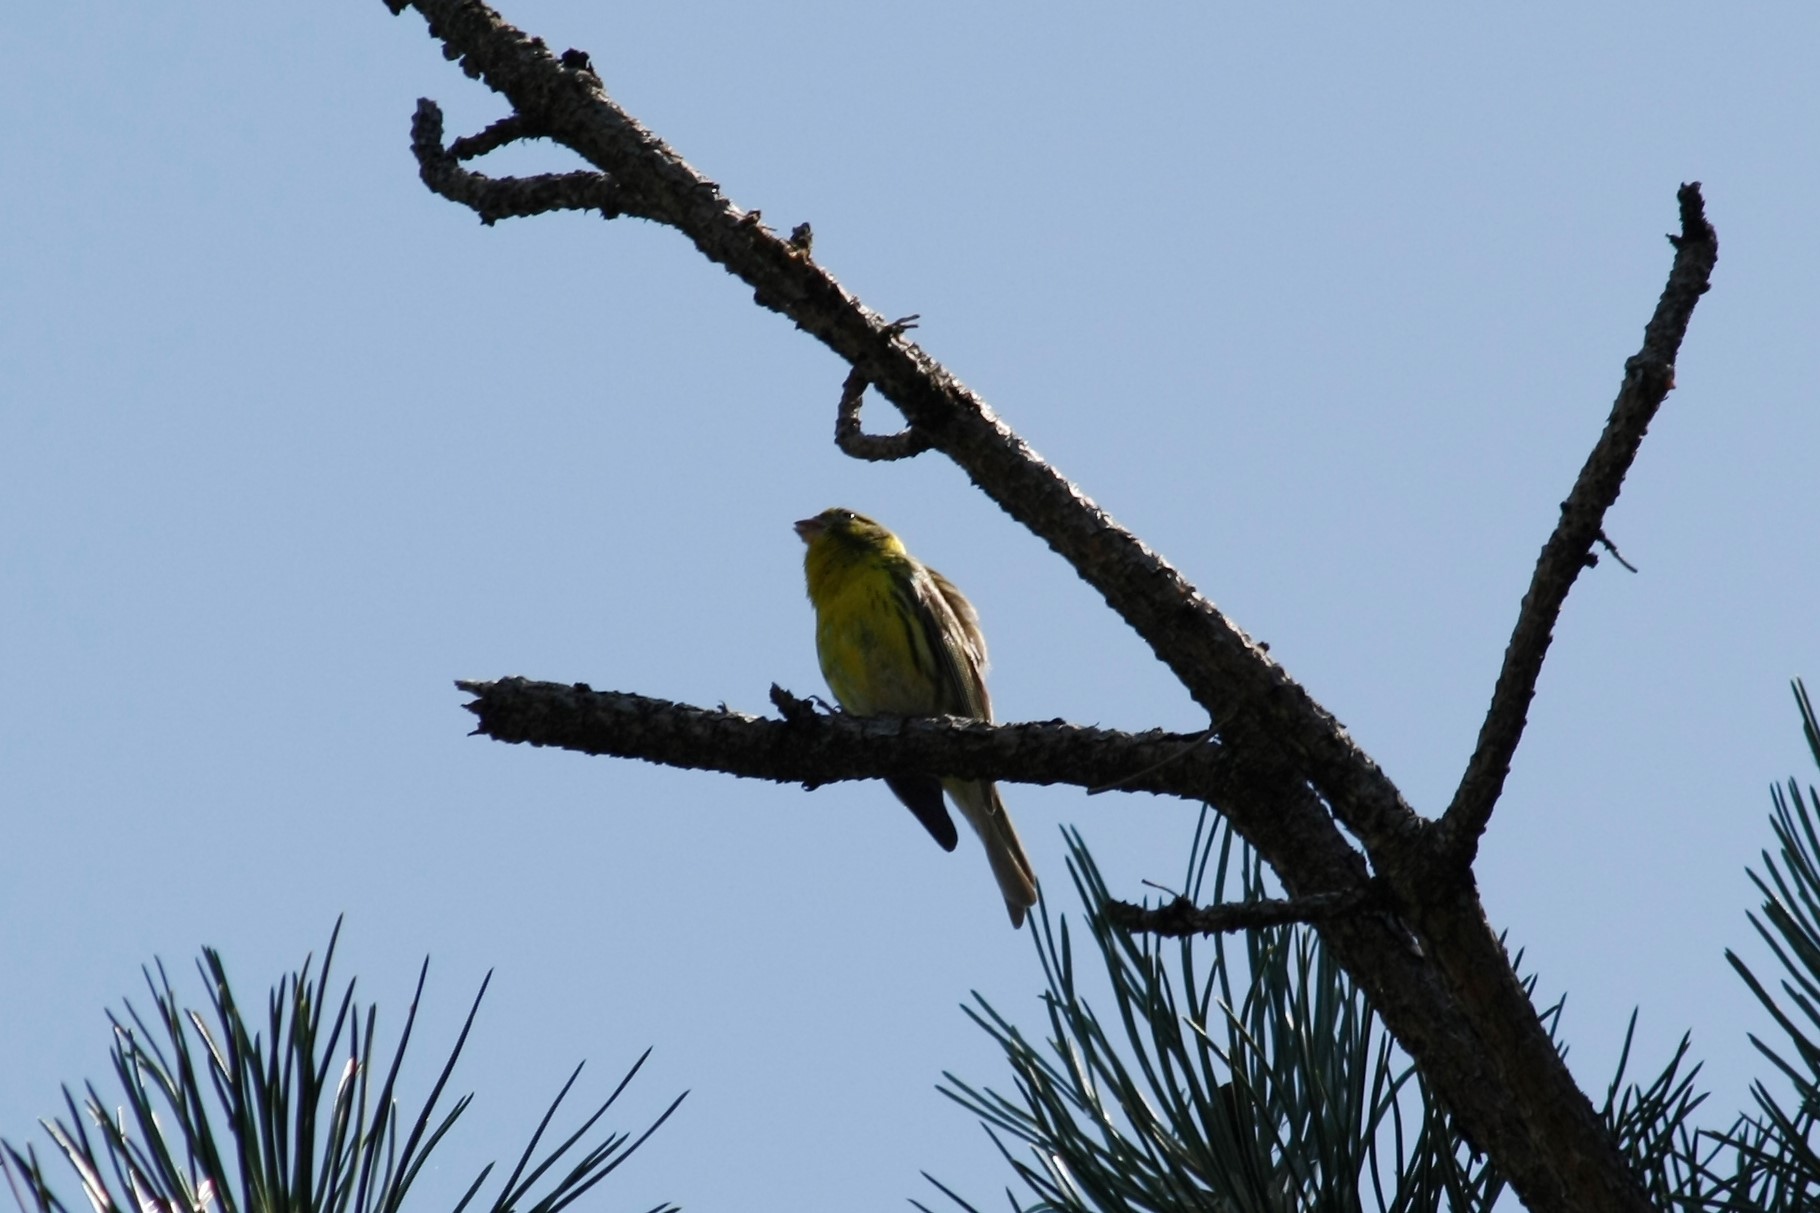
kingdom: Animalia
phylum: Chordata
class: Aves
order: Passeriformes
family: Emberizidae
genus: Emberiza
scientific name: Emberiza citrinella
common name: Yellowhammer
